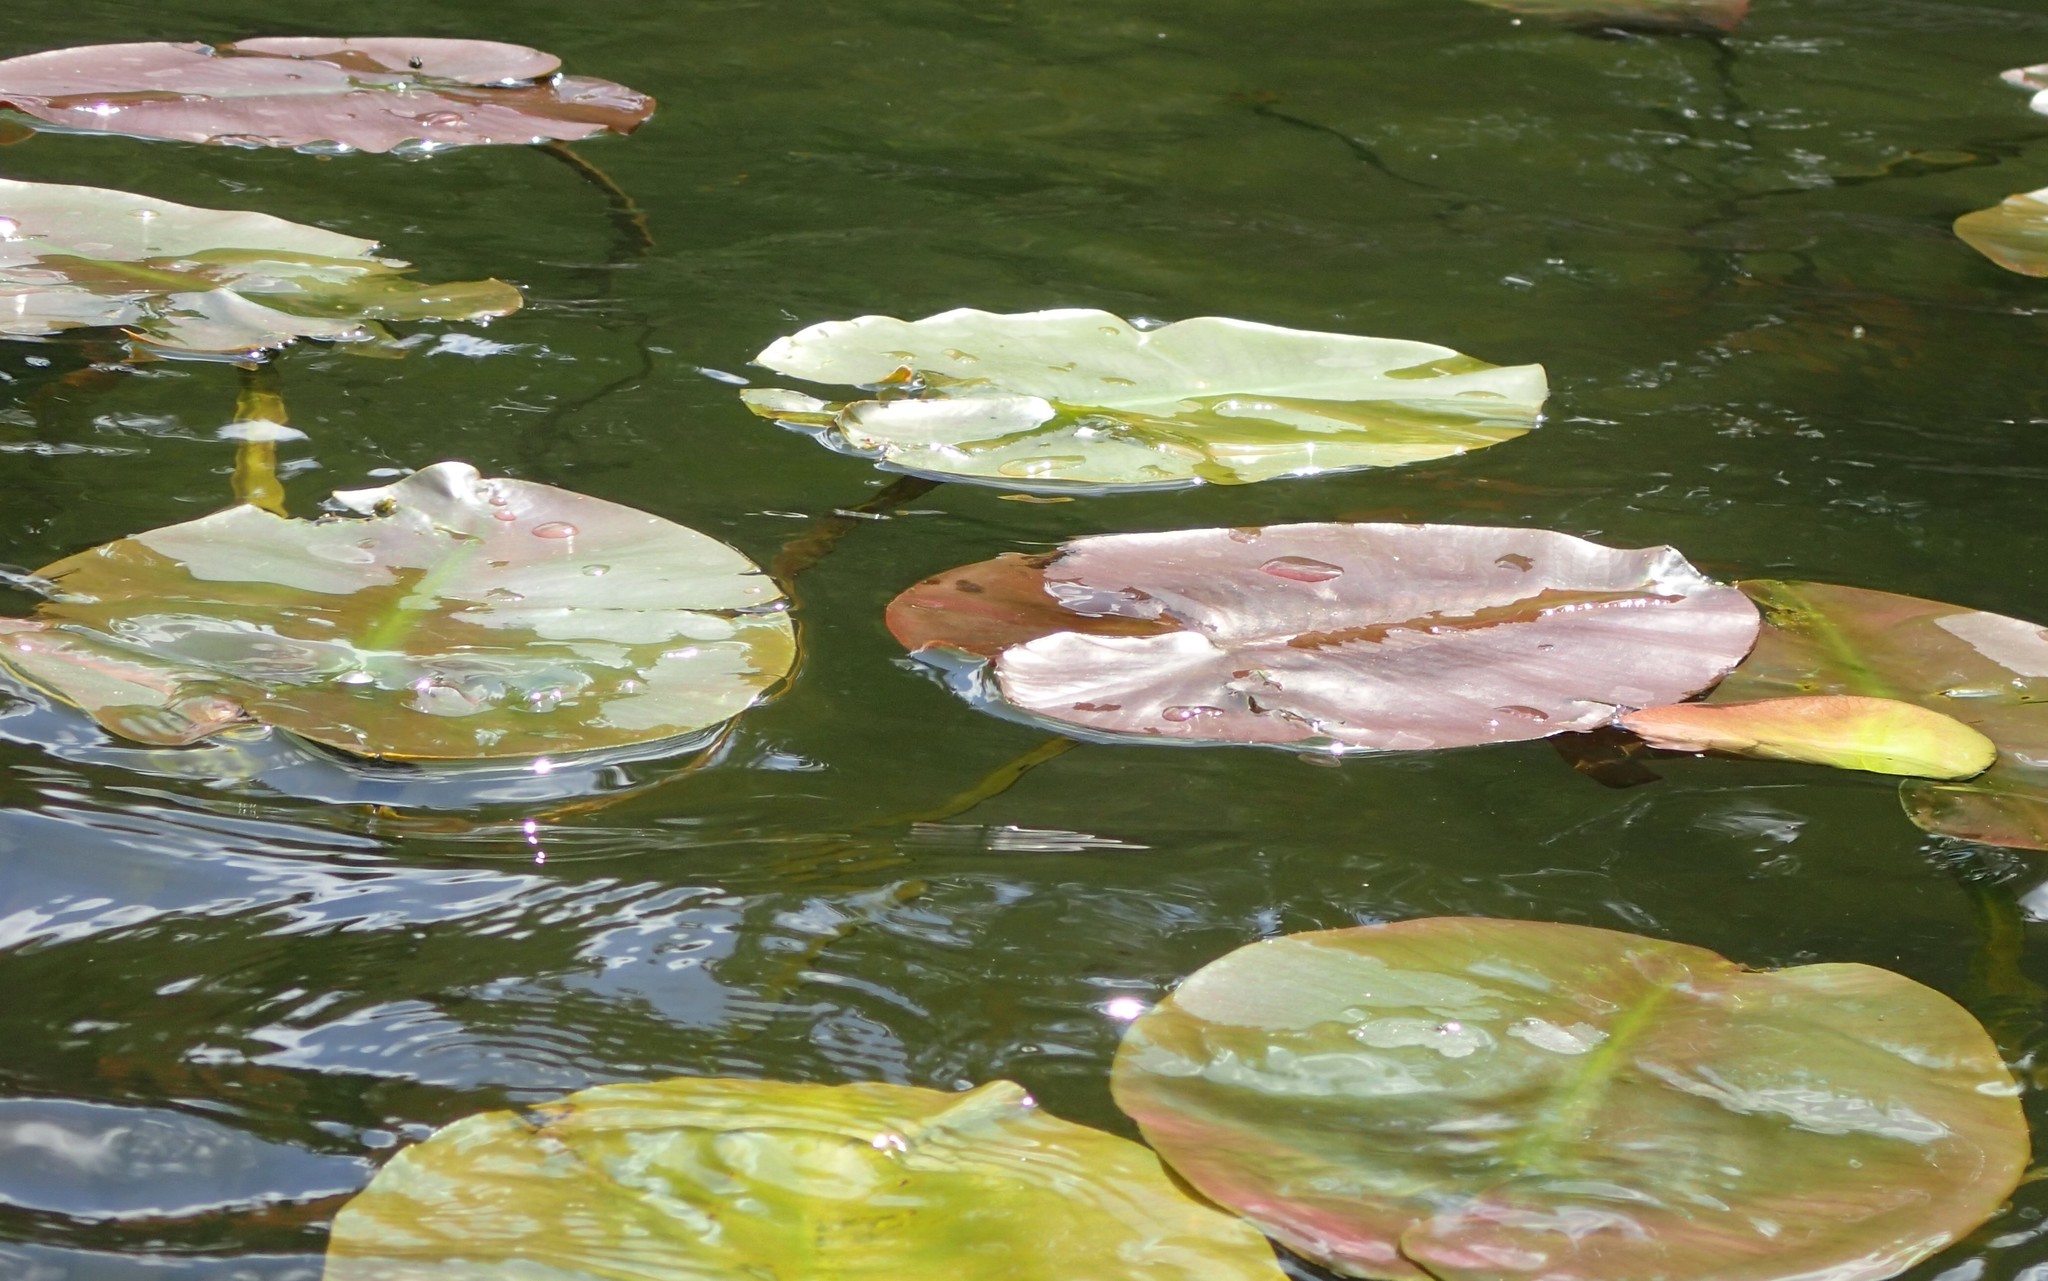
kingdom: Plantae
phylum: Tracheophyta
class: Magnoliopsida
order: Nymphaeales
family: Nymphaeaceae
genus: Nuphar
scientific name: Nuphar variegata
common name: Beaver-root
